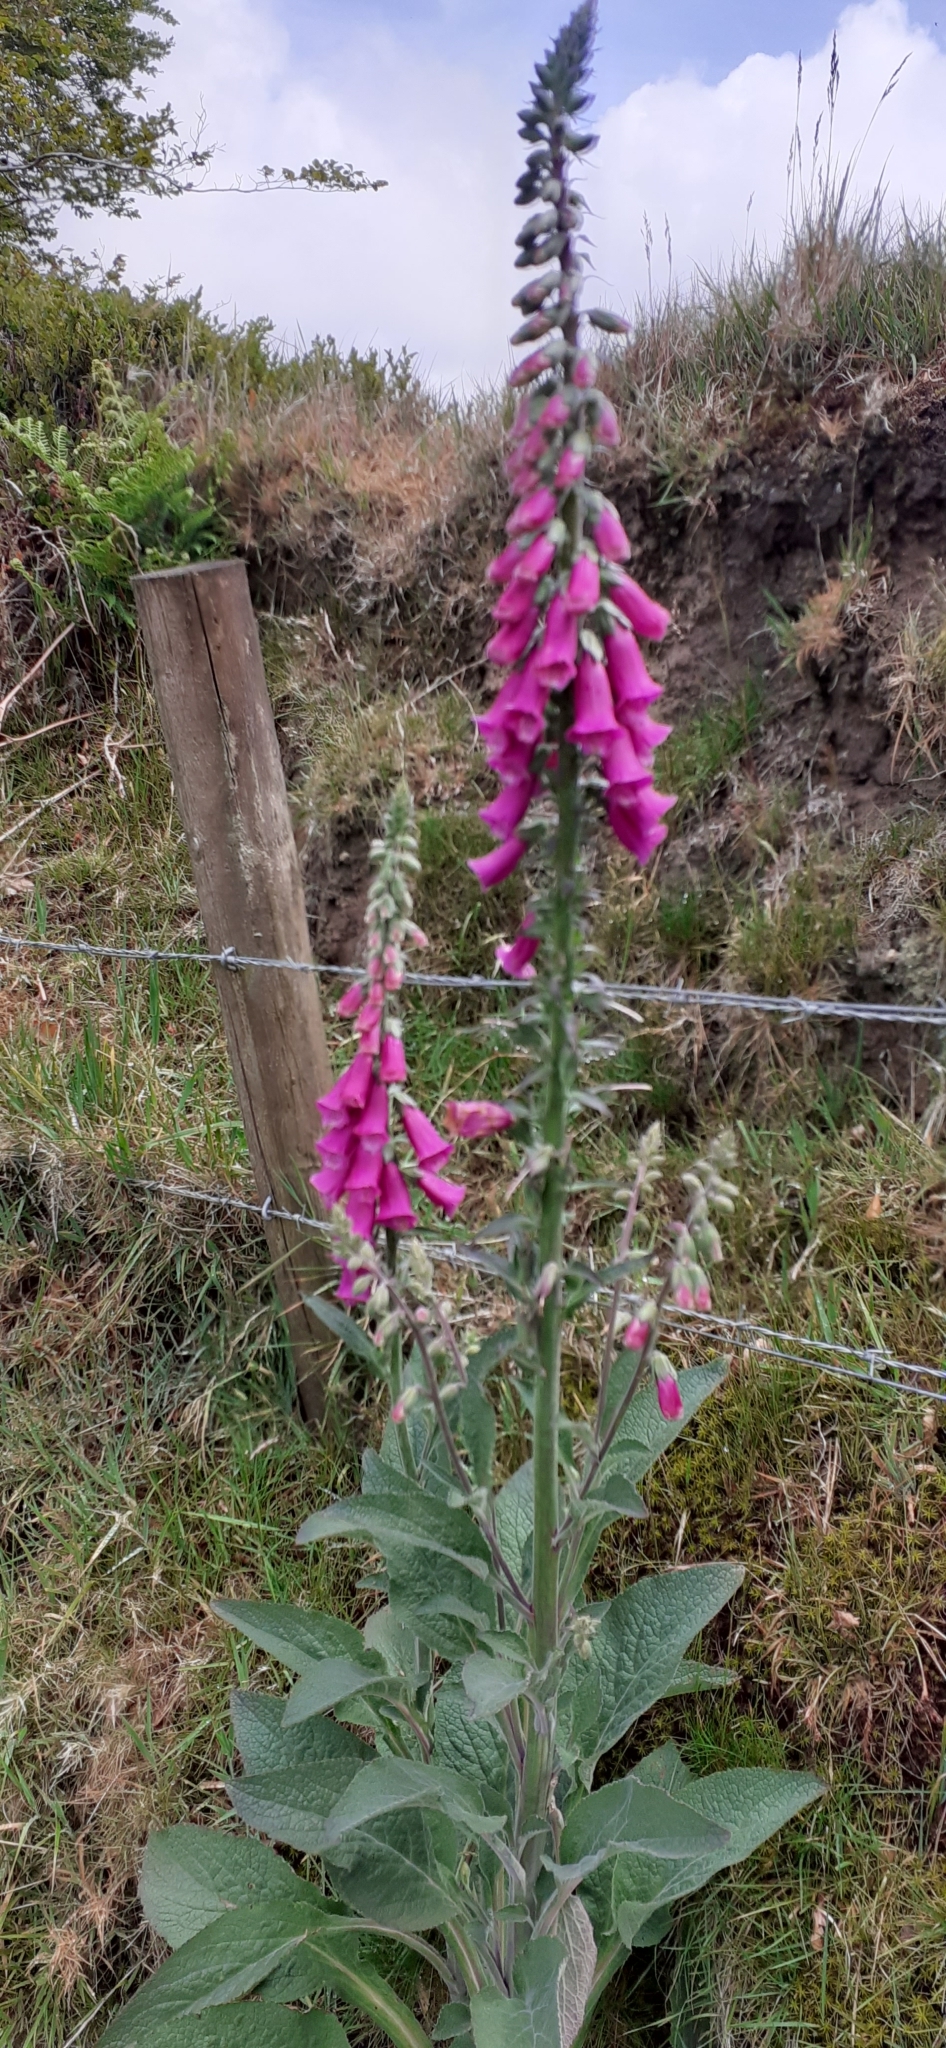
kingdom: Plantae
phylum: Tracheophyta
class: Magnoliopsida
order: Lamiales
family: Plantaginaceae
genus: Digitalis
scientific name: Digitalis purpurea
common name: Foxglove
